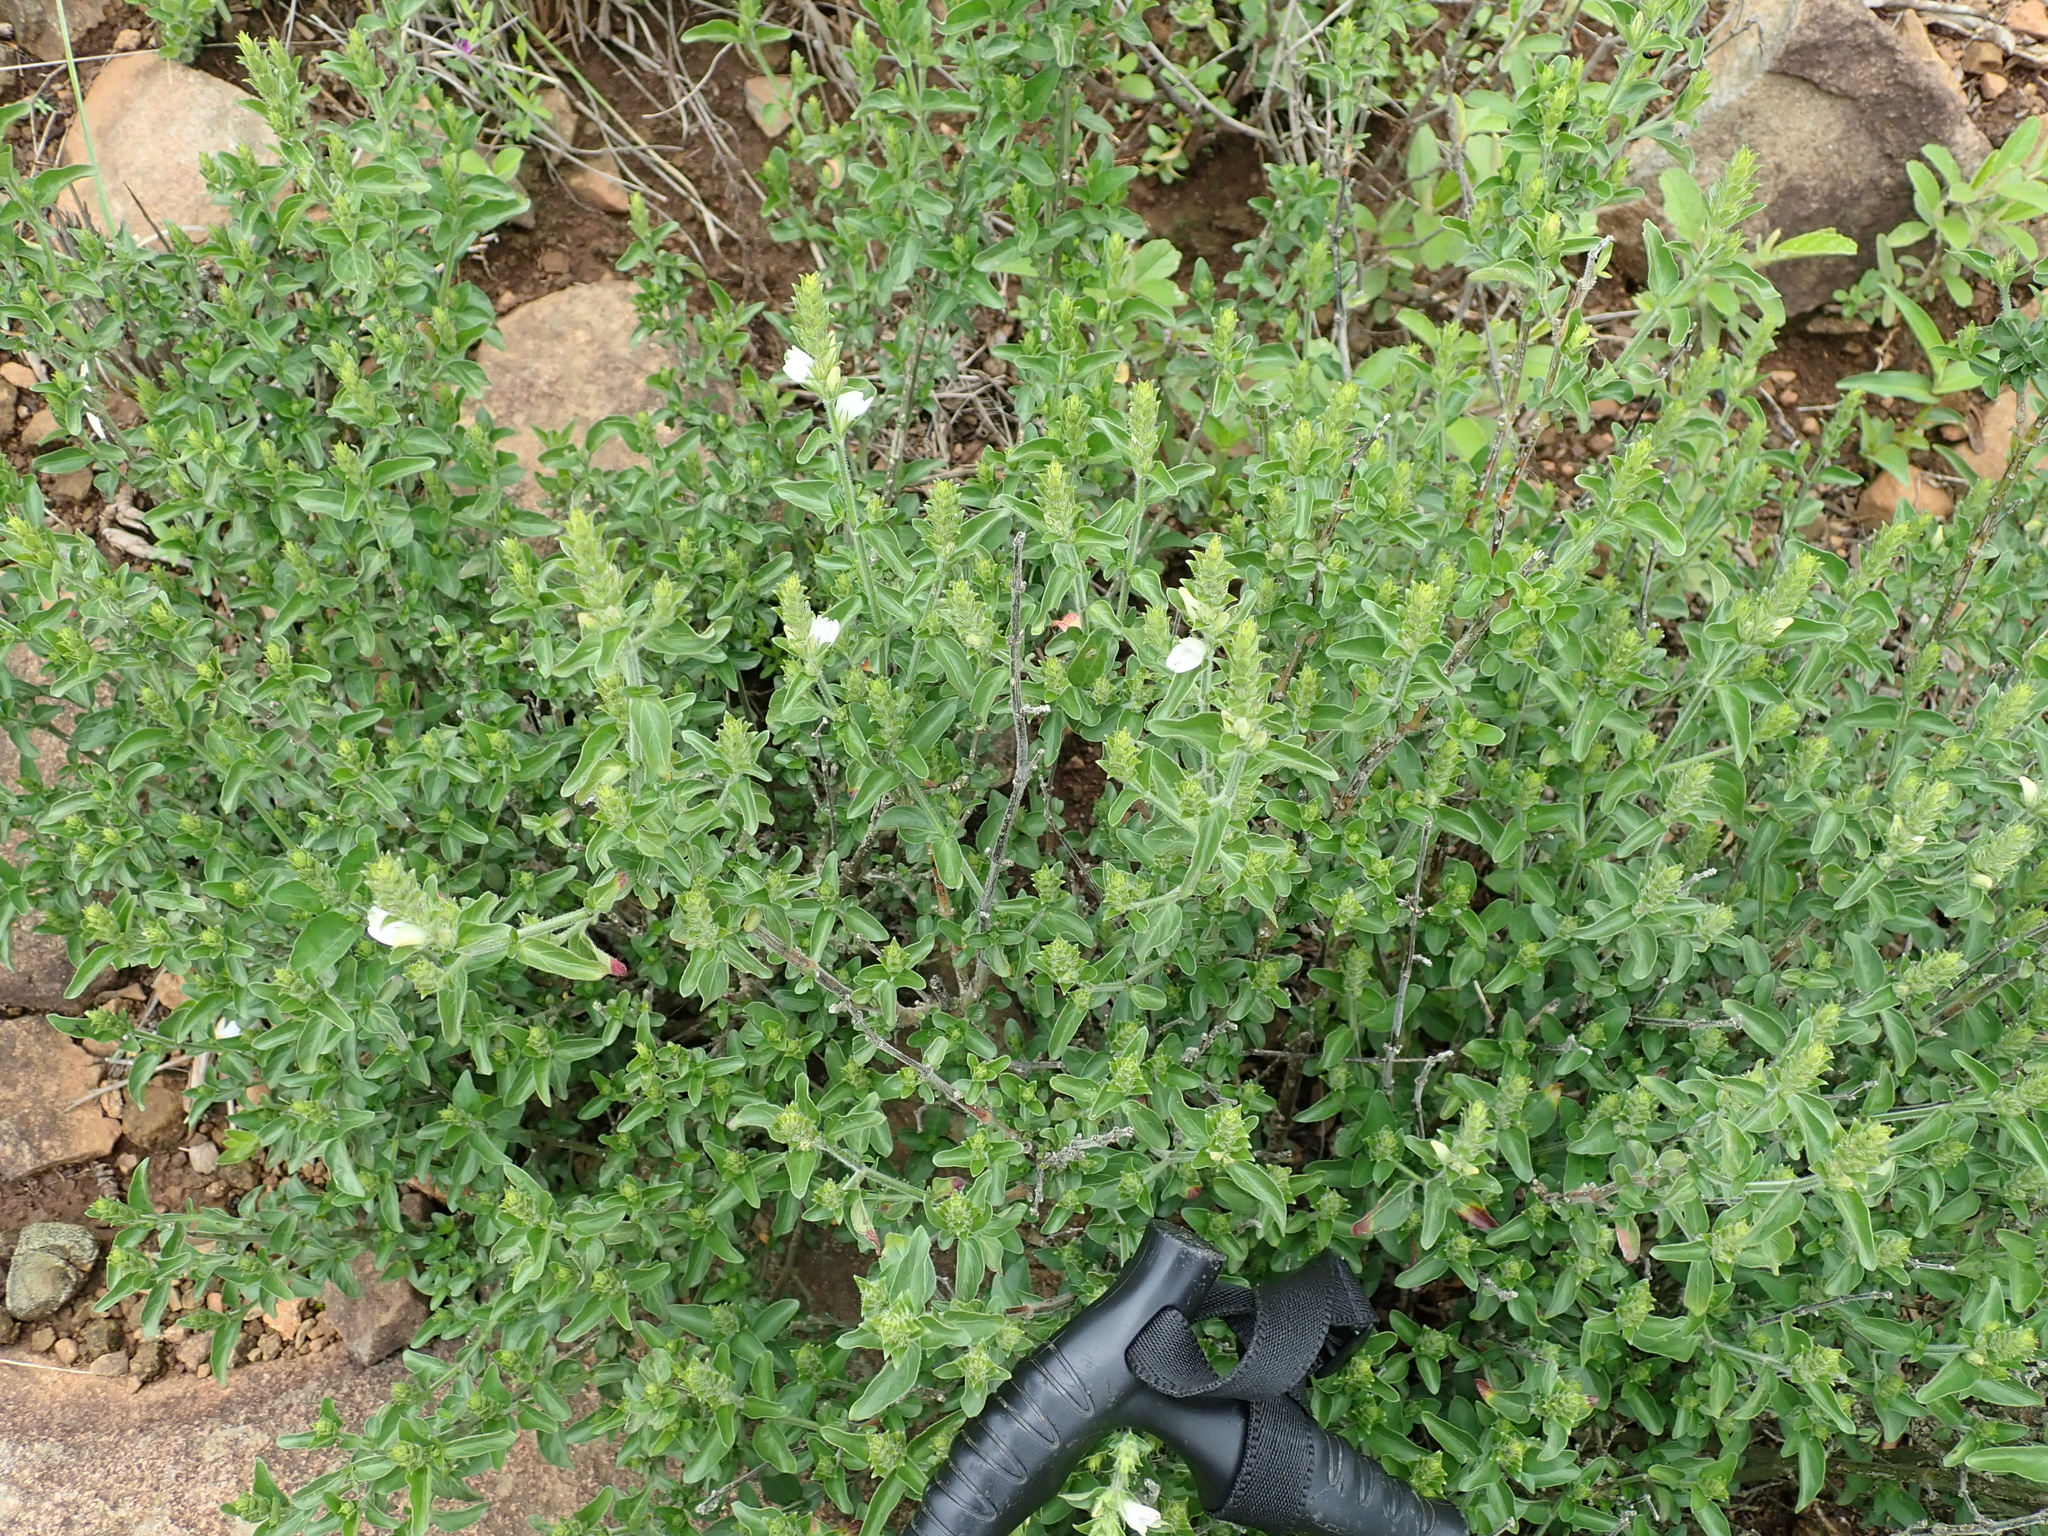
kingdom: Plantae
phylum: Tracheophyta
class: Magnoliopsida
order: Lamiales
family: Acanthaceae
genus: Isoglossa
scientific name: Isoglossa glandulosissima
